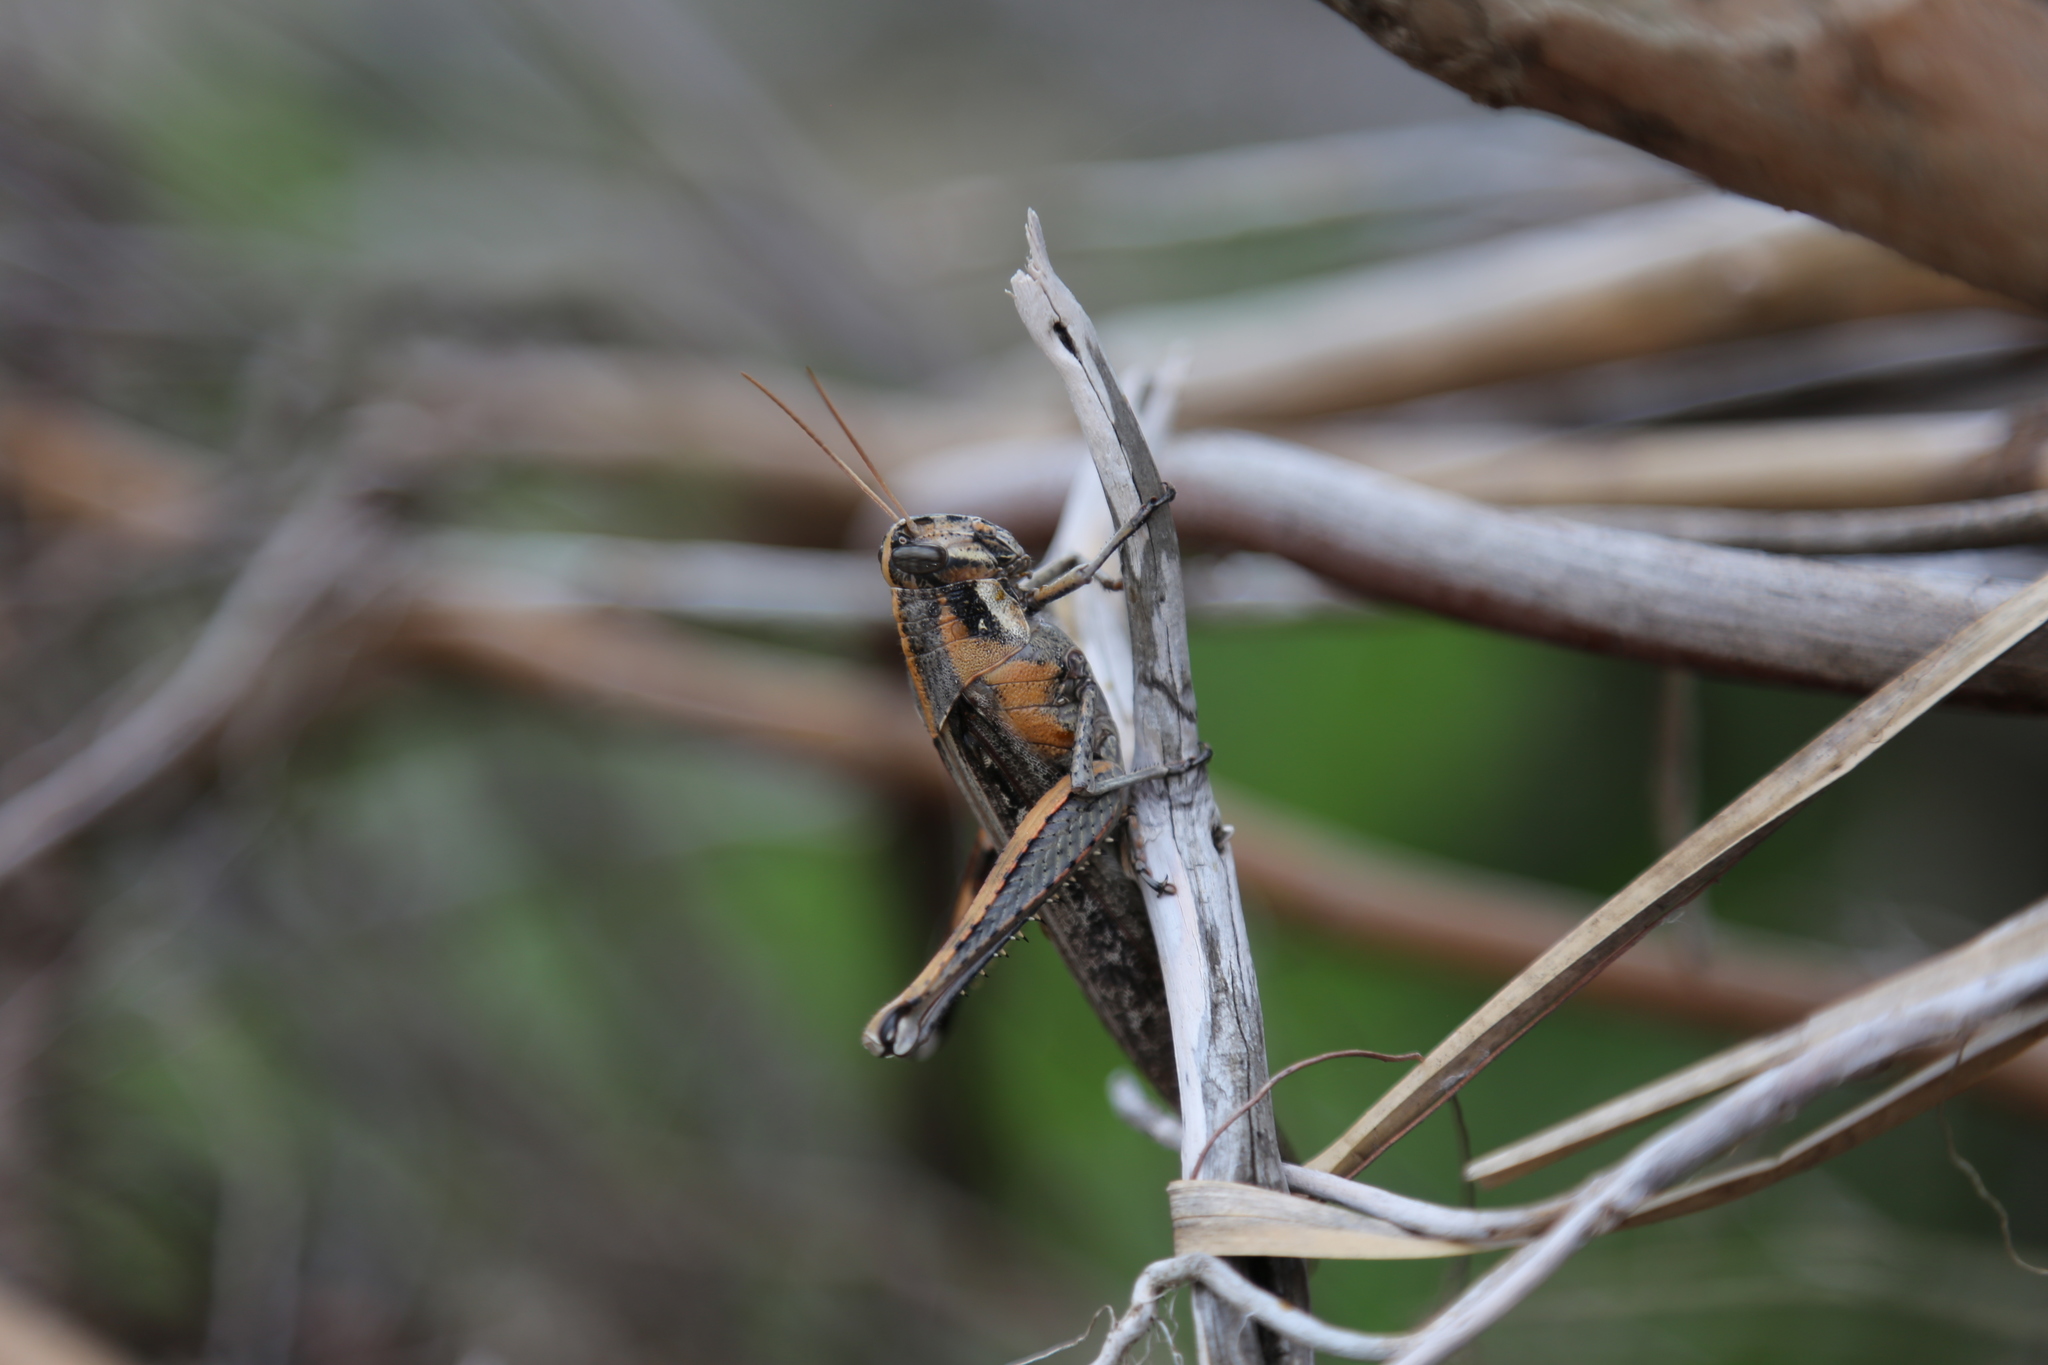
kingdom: Animalia
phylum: Arthropoda
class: Insecta
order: Orthoptera
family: Acrididae
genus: Schistocerca
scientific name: Schistocerca nitens
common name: Vagrant grasshopper
